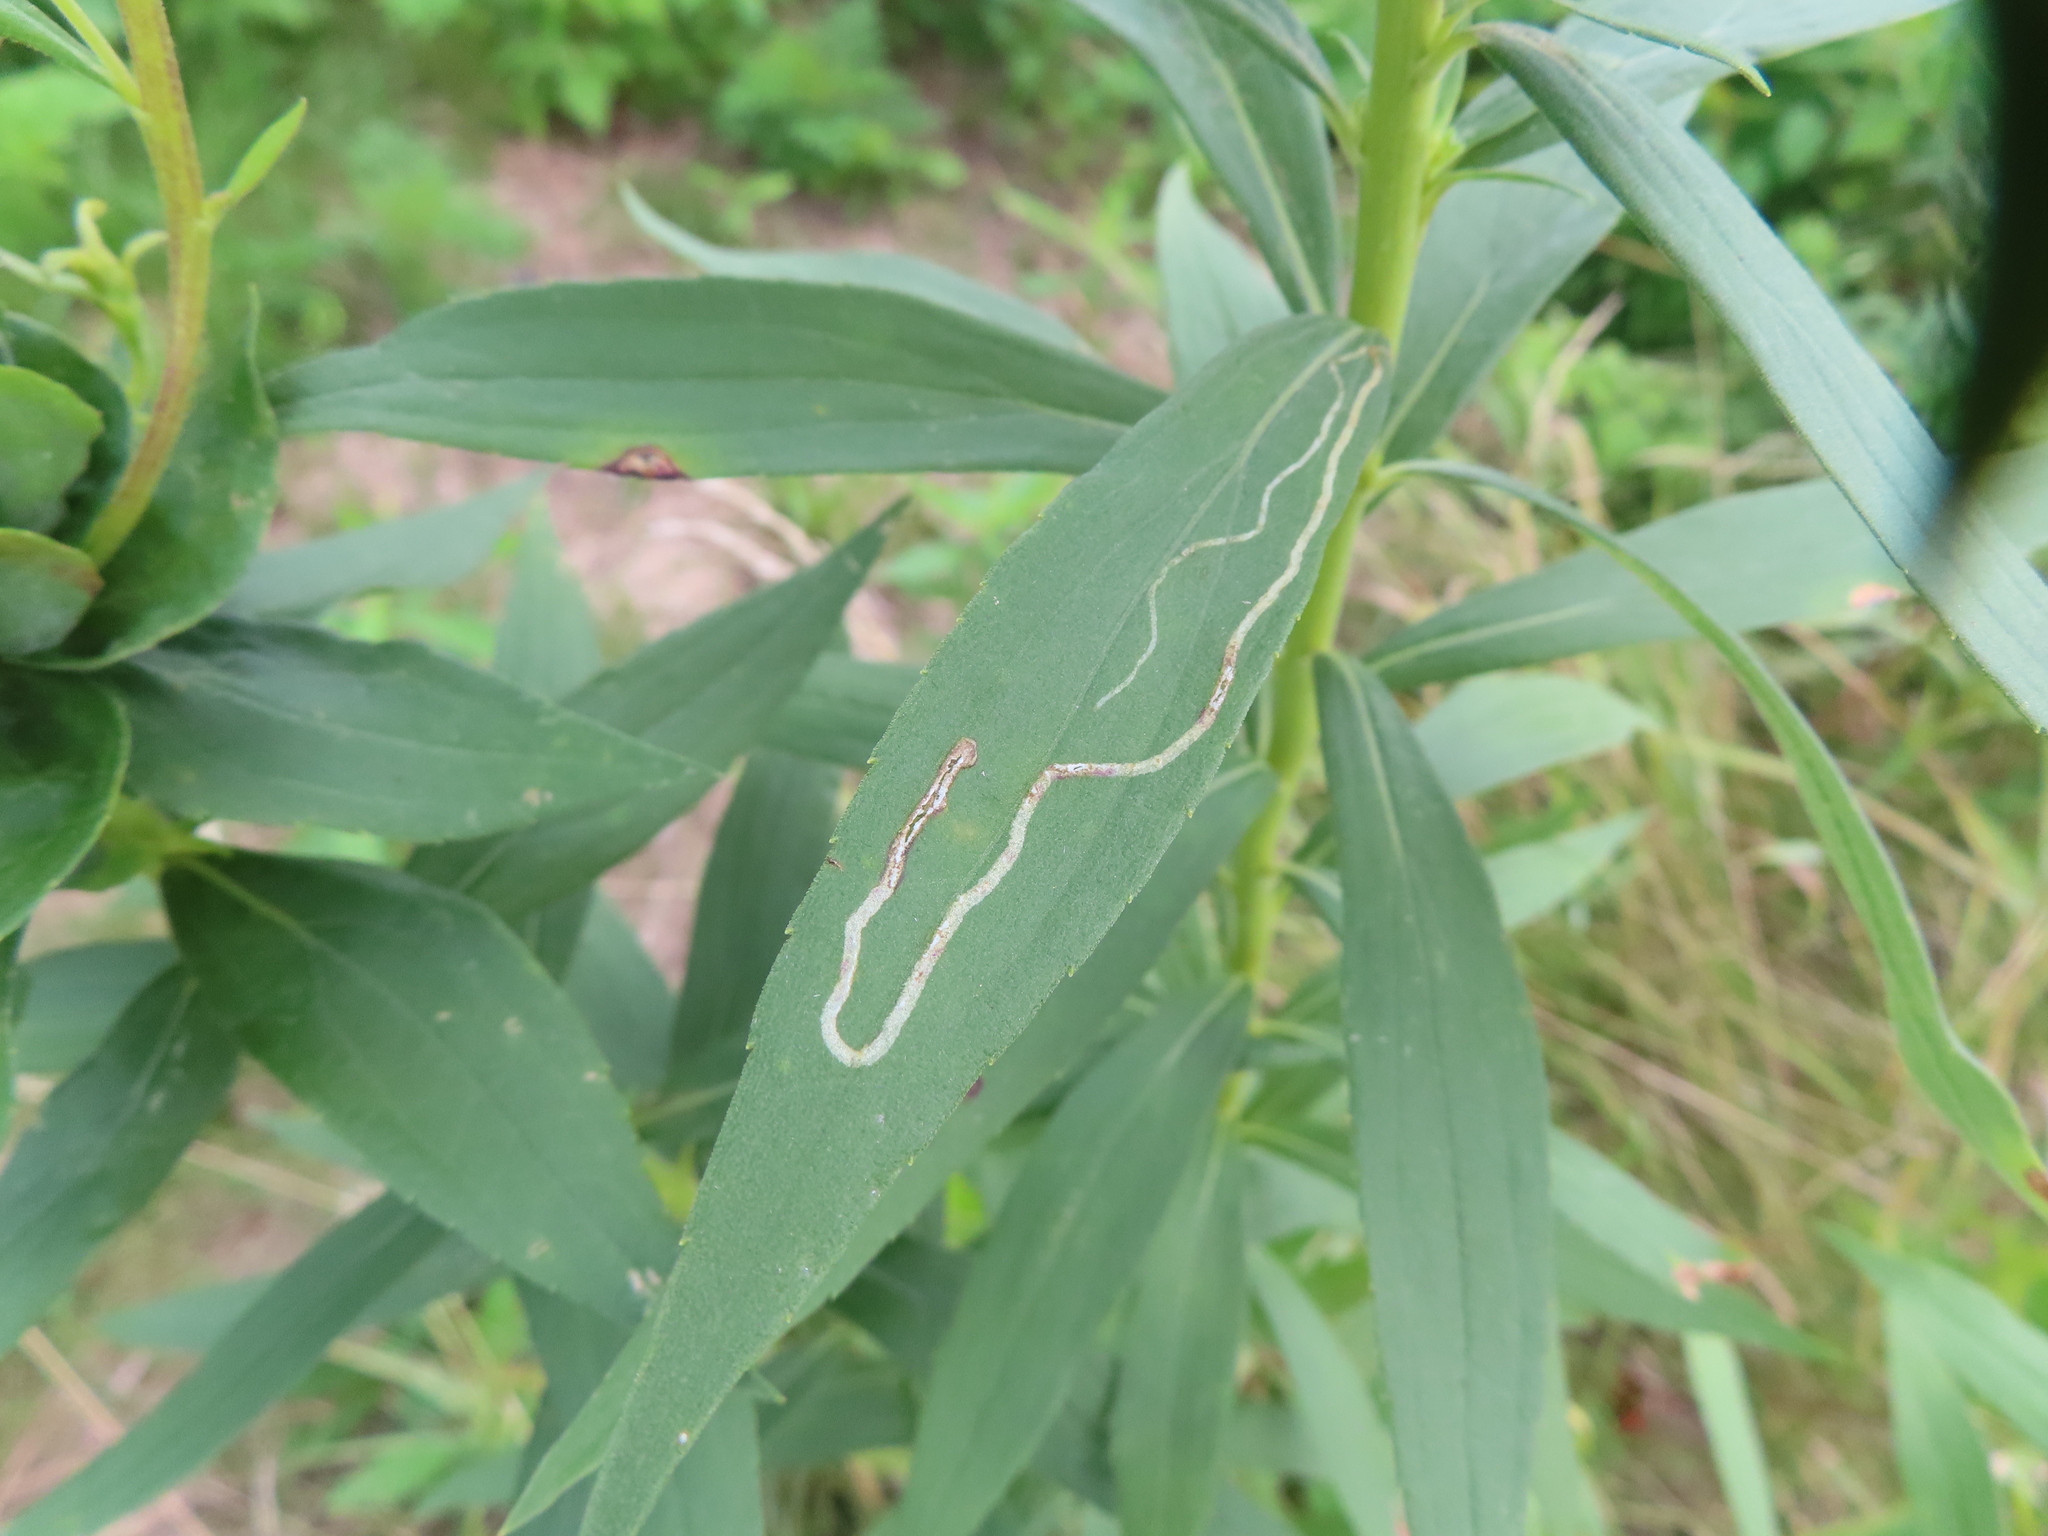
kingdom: Animalia
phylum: Arthropoda
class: Insecta
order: Diptera
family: Agromyzidae
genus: Ophiomyia
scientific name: Ophiomyia maura
